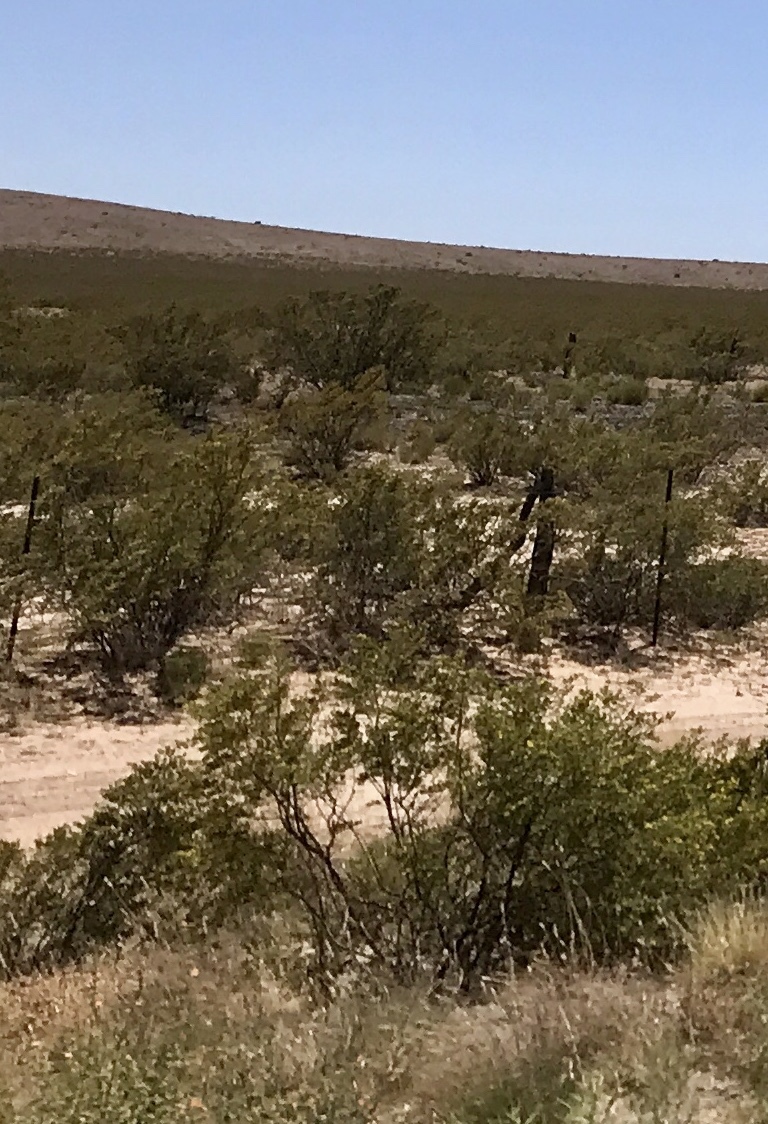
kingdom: Plantae
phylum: Tracheophyta
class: Magnoliopsida
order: Zygophyllales
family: Zygophyllaceae
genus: Larrea
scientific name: Larrea tridentata
